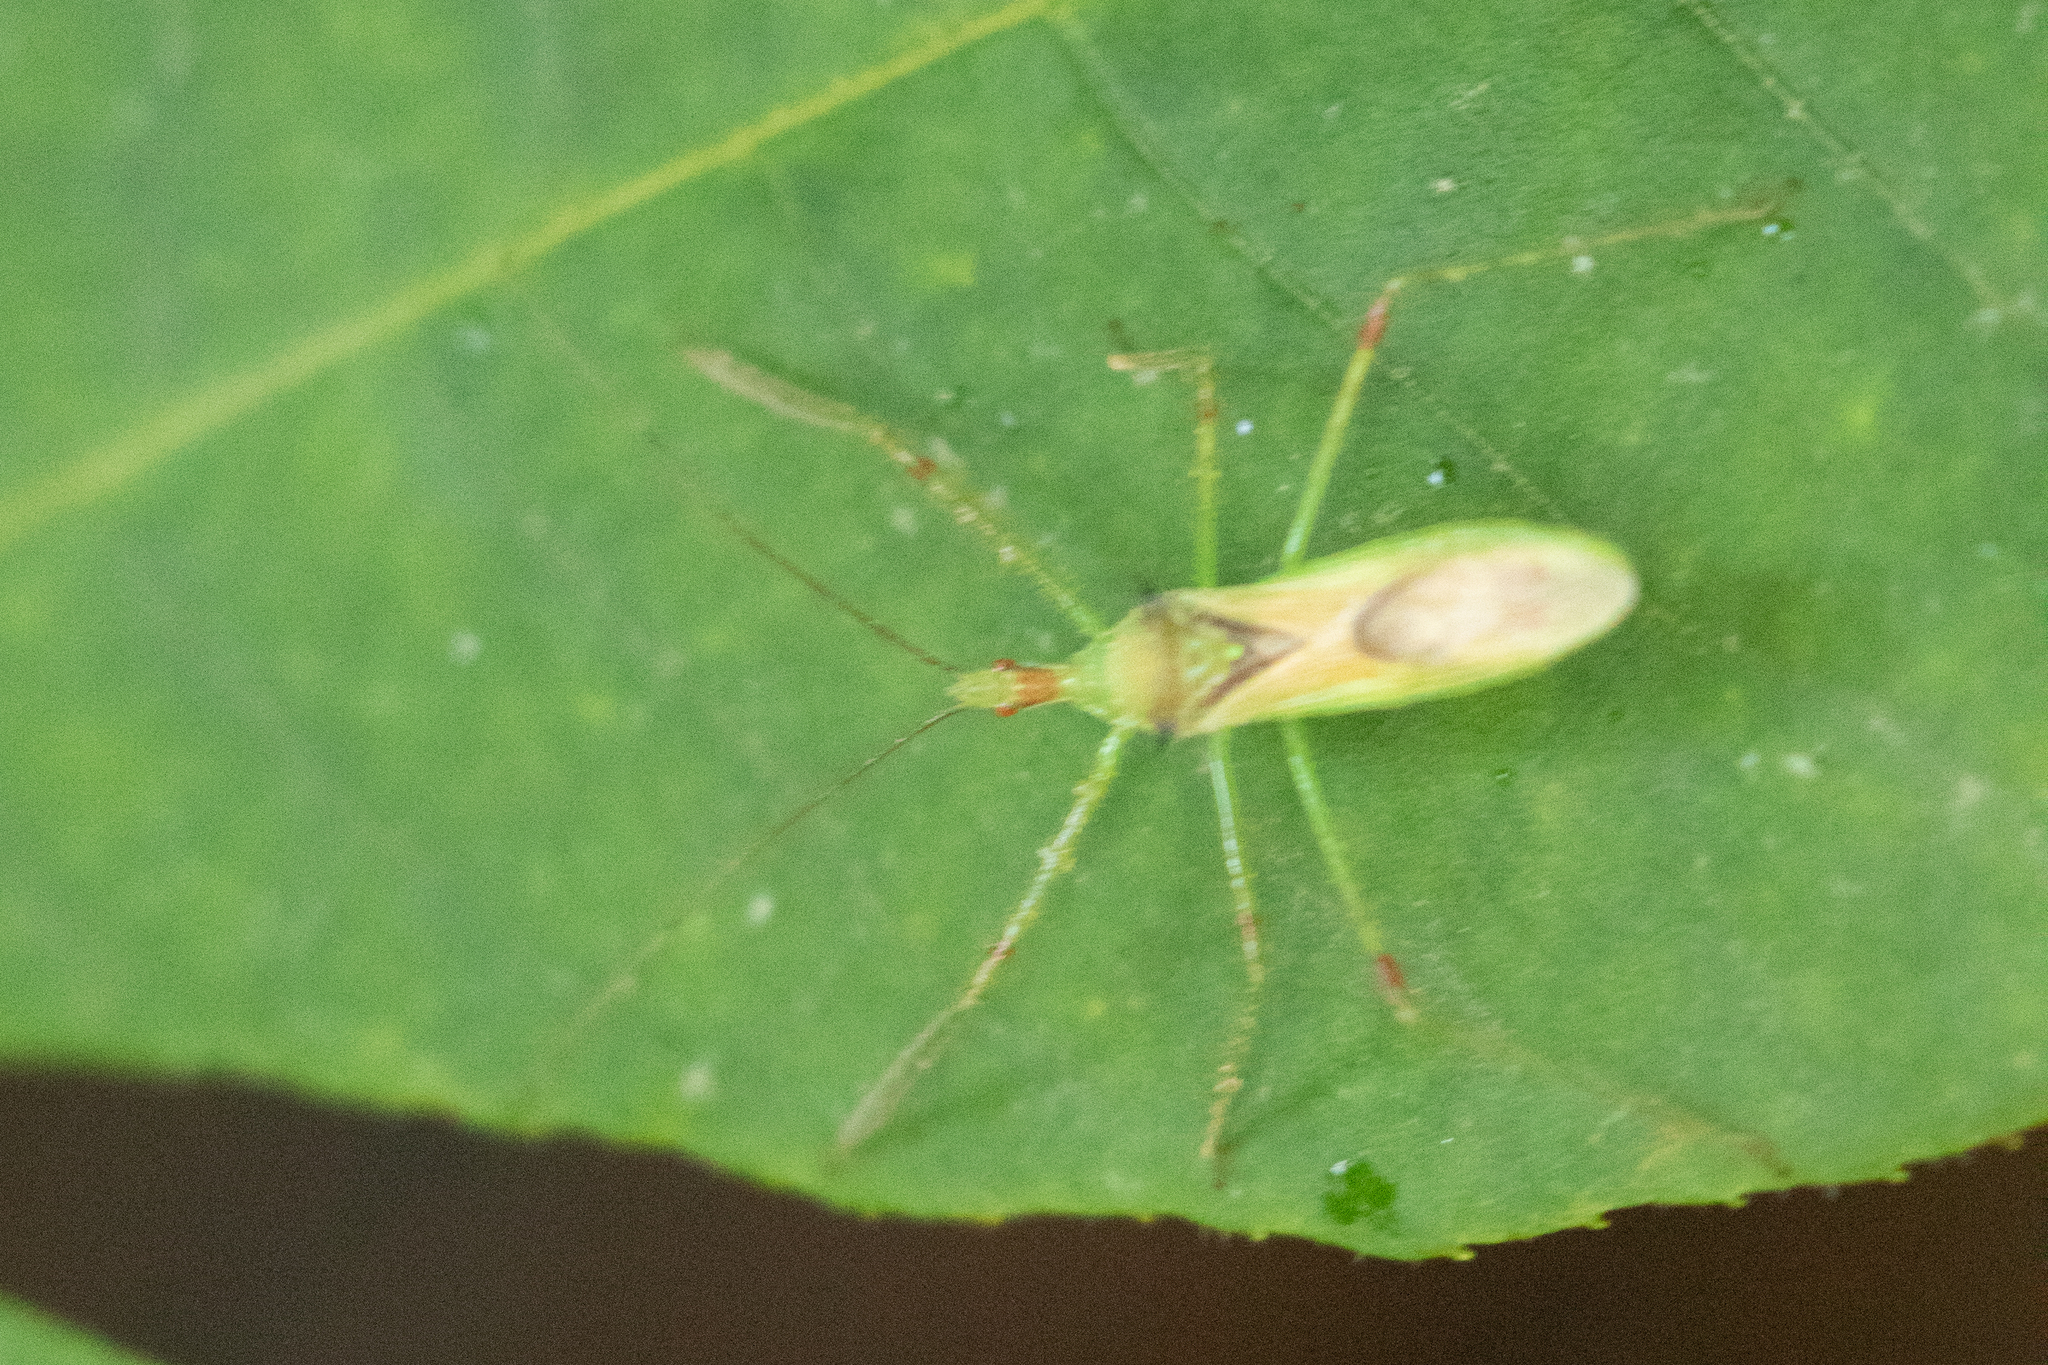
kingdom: Animalia
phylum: Arthropoda
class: Insecta
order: Hemiptera
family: Reduviidae
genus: Zelus
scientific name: Zelus luridus
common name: Pale green assassin bug
